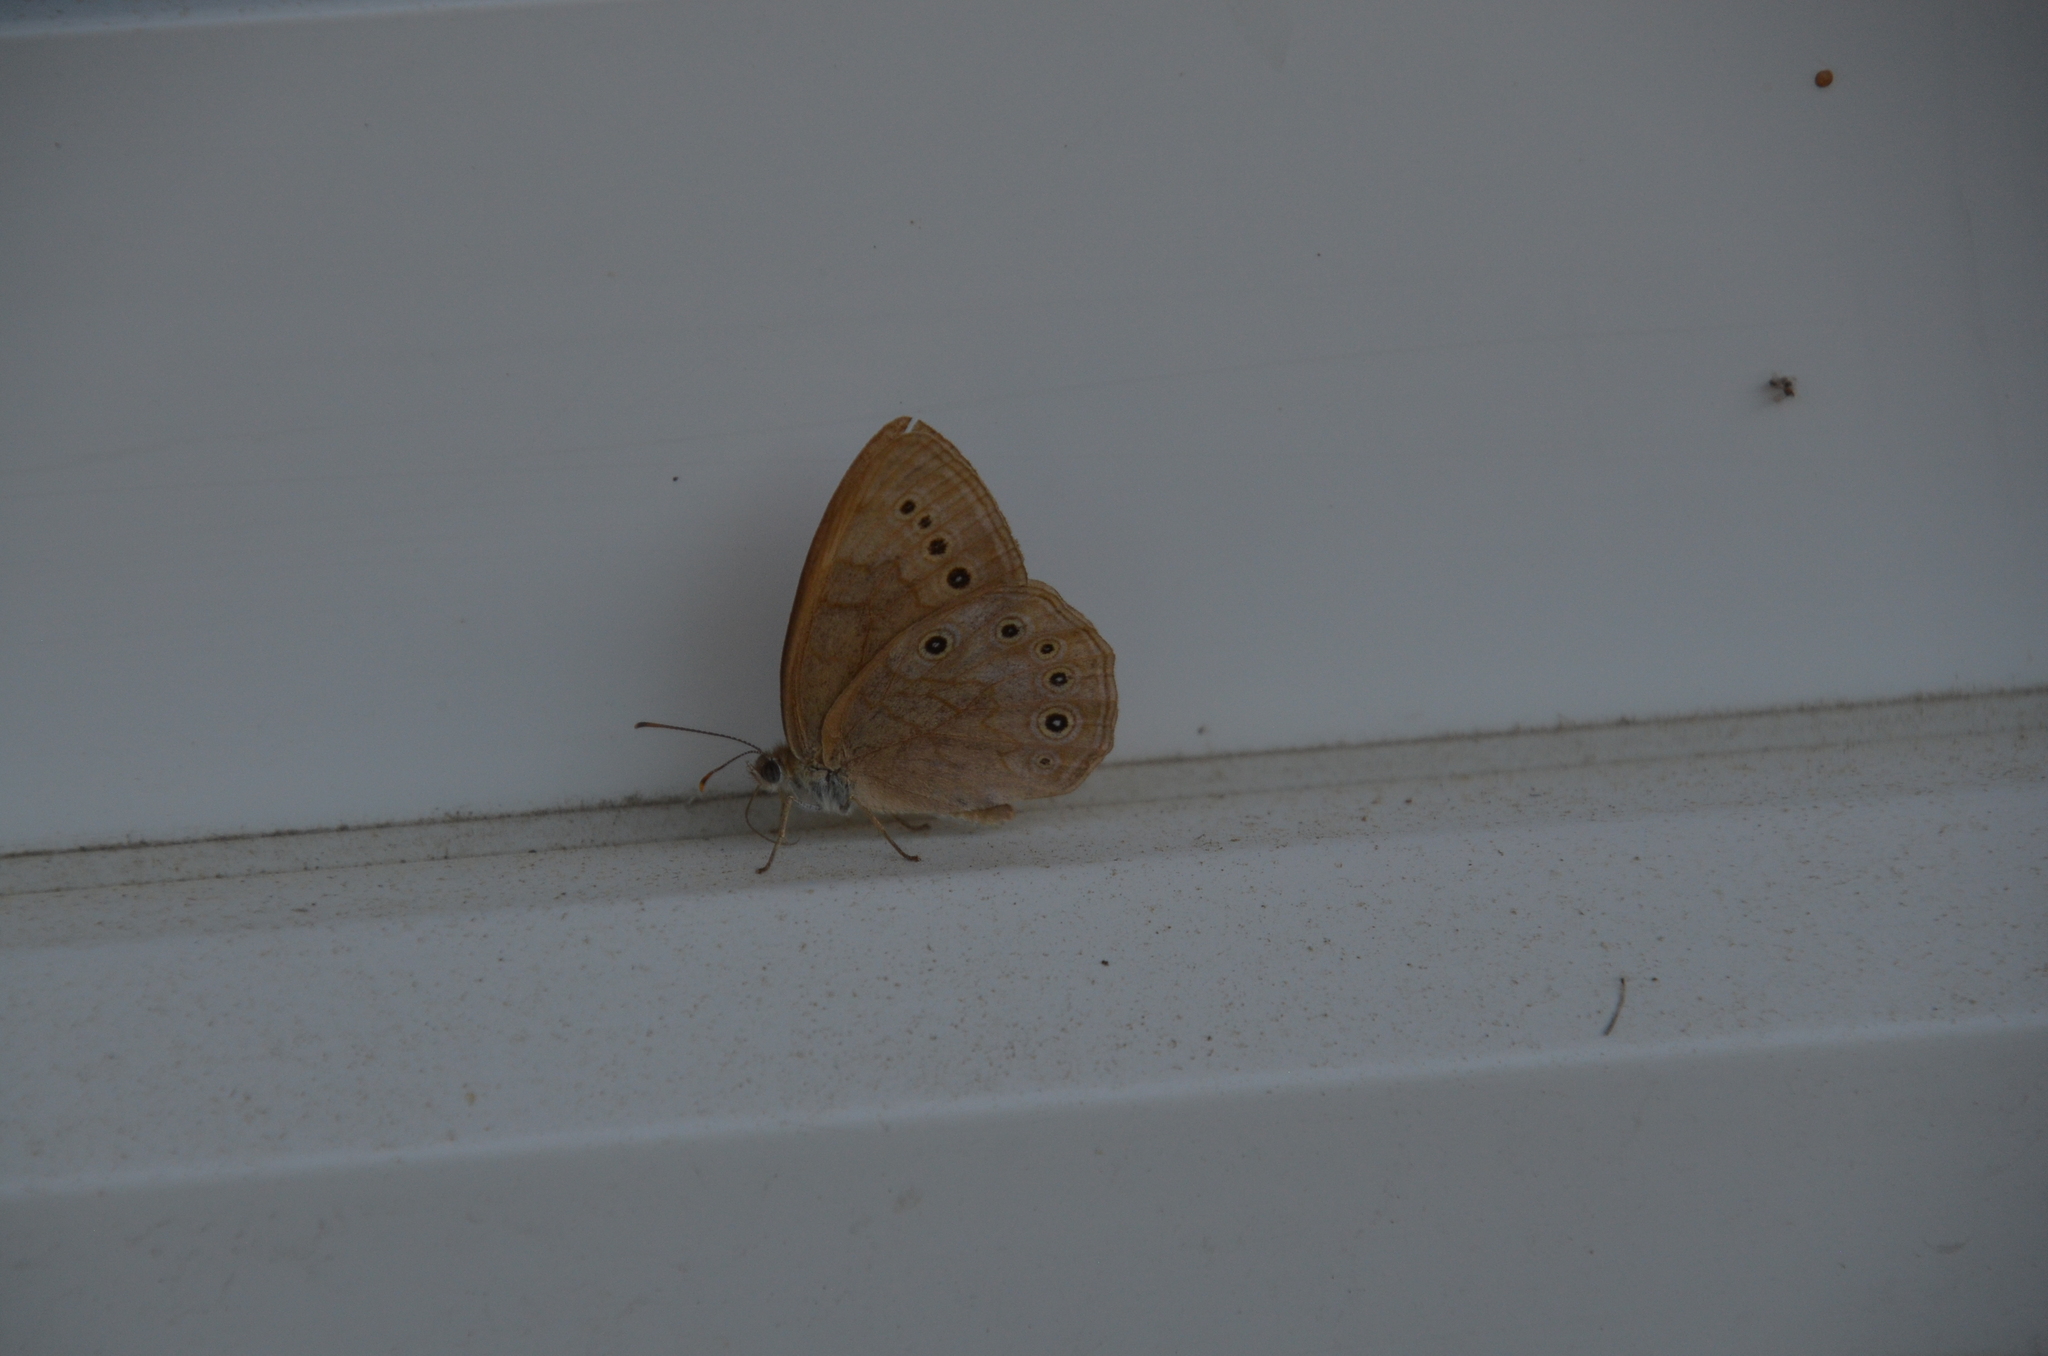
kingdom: Animalia
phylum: Arthropoda
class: Insecta
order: Lepidoptera
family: Nymphalidae
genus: Lethe
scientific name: Lethe eurydice
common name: Eyed brown
